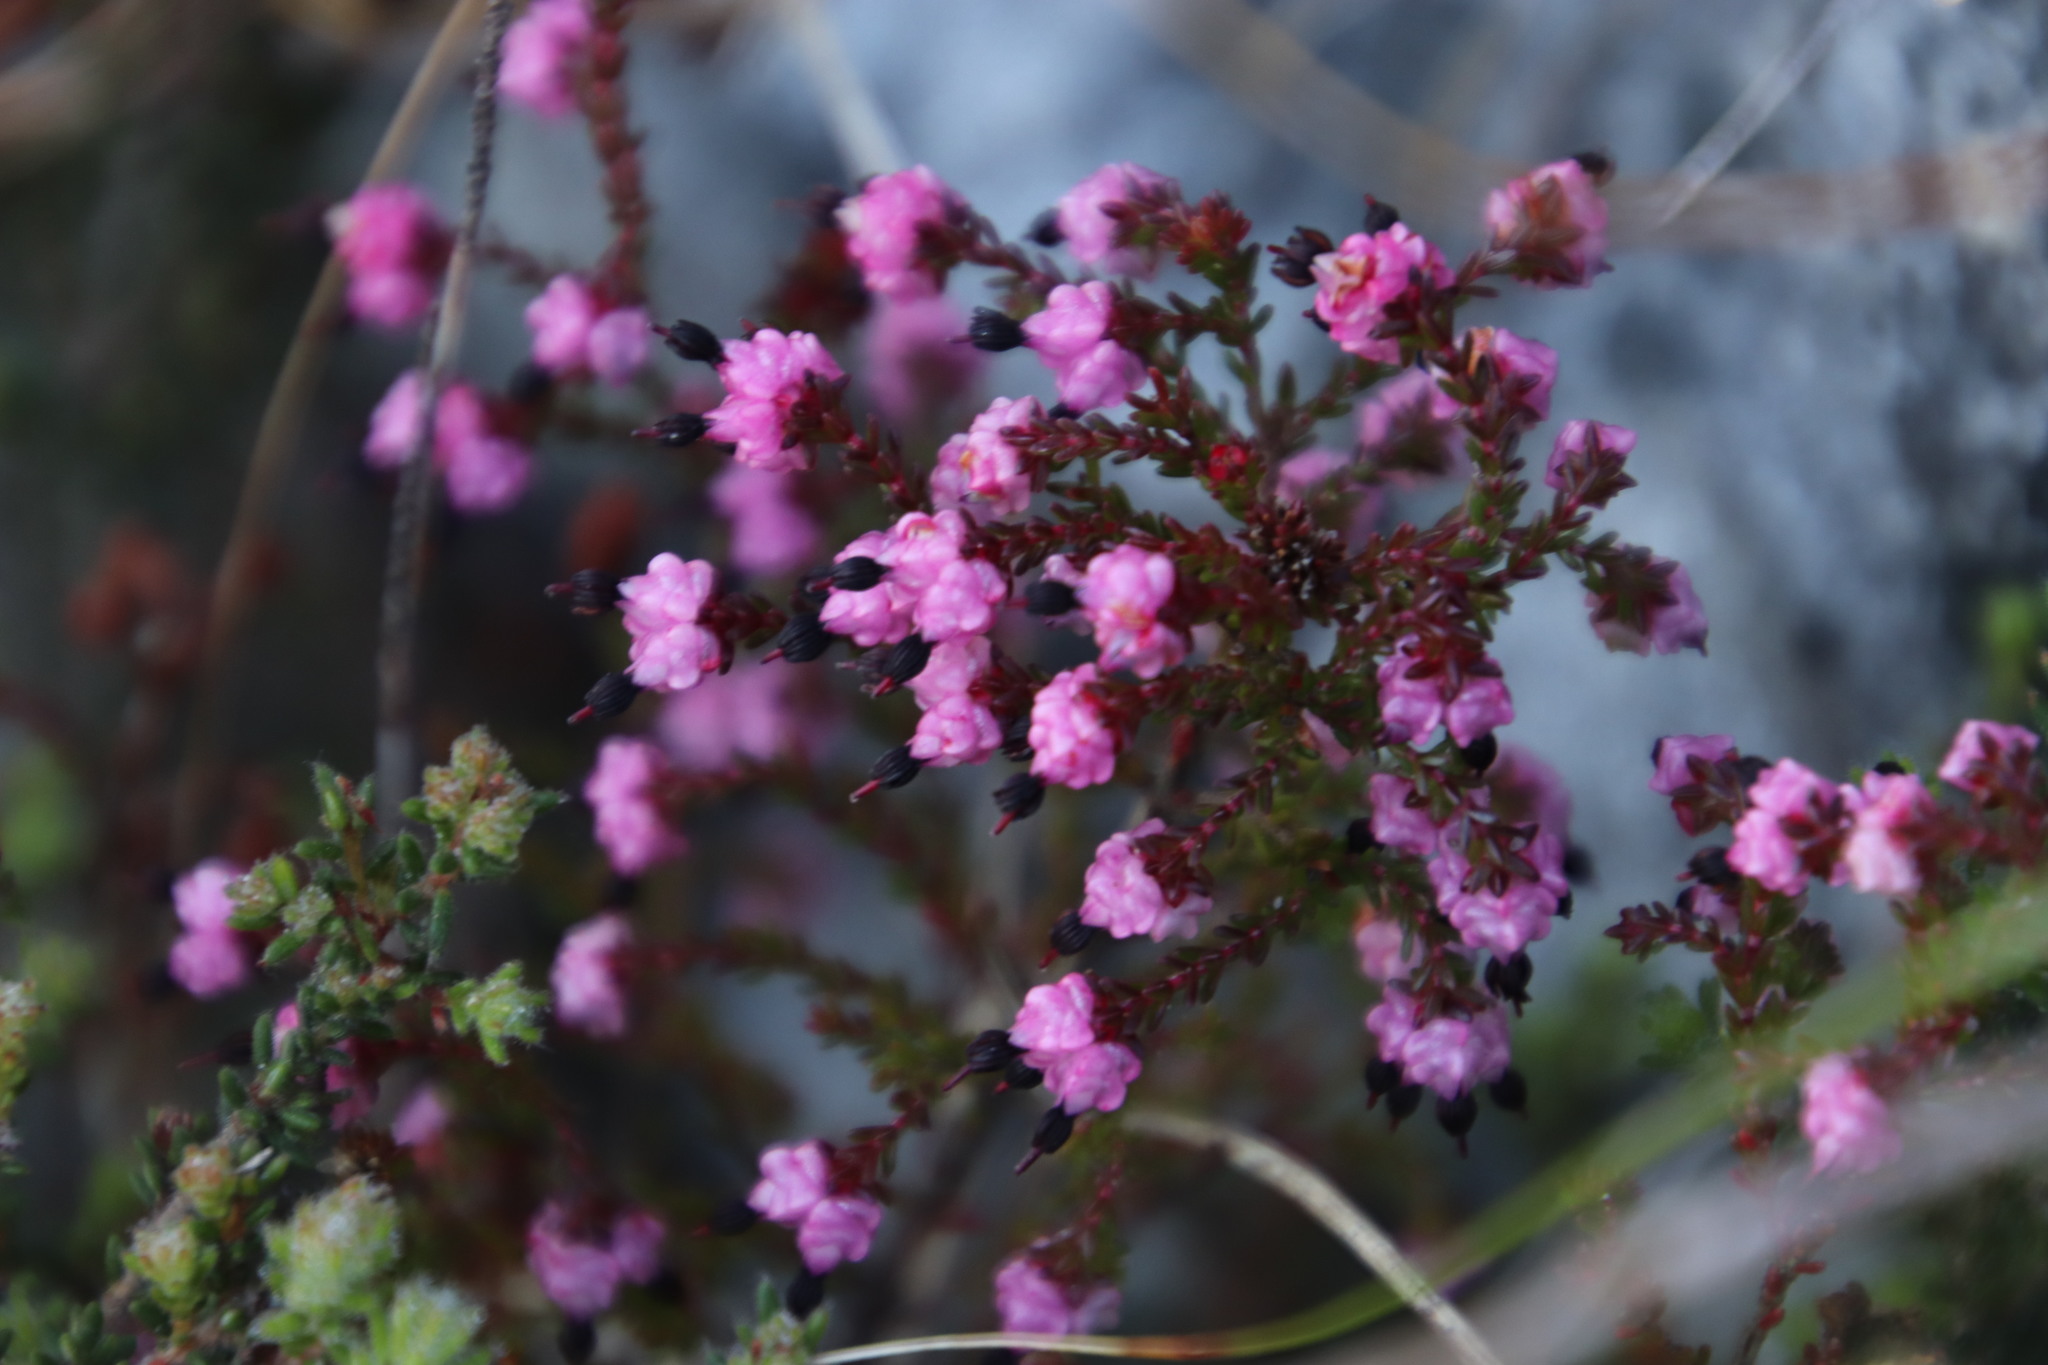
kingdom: Plantae
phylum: Tracheophyta
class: Magnoliopsida
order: Ericales
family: Ericaceae
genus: Erica
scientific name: Erica spumosa
